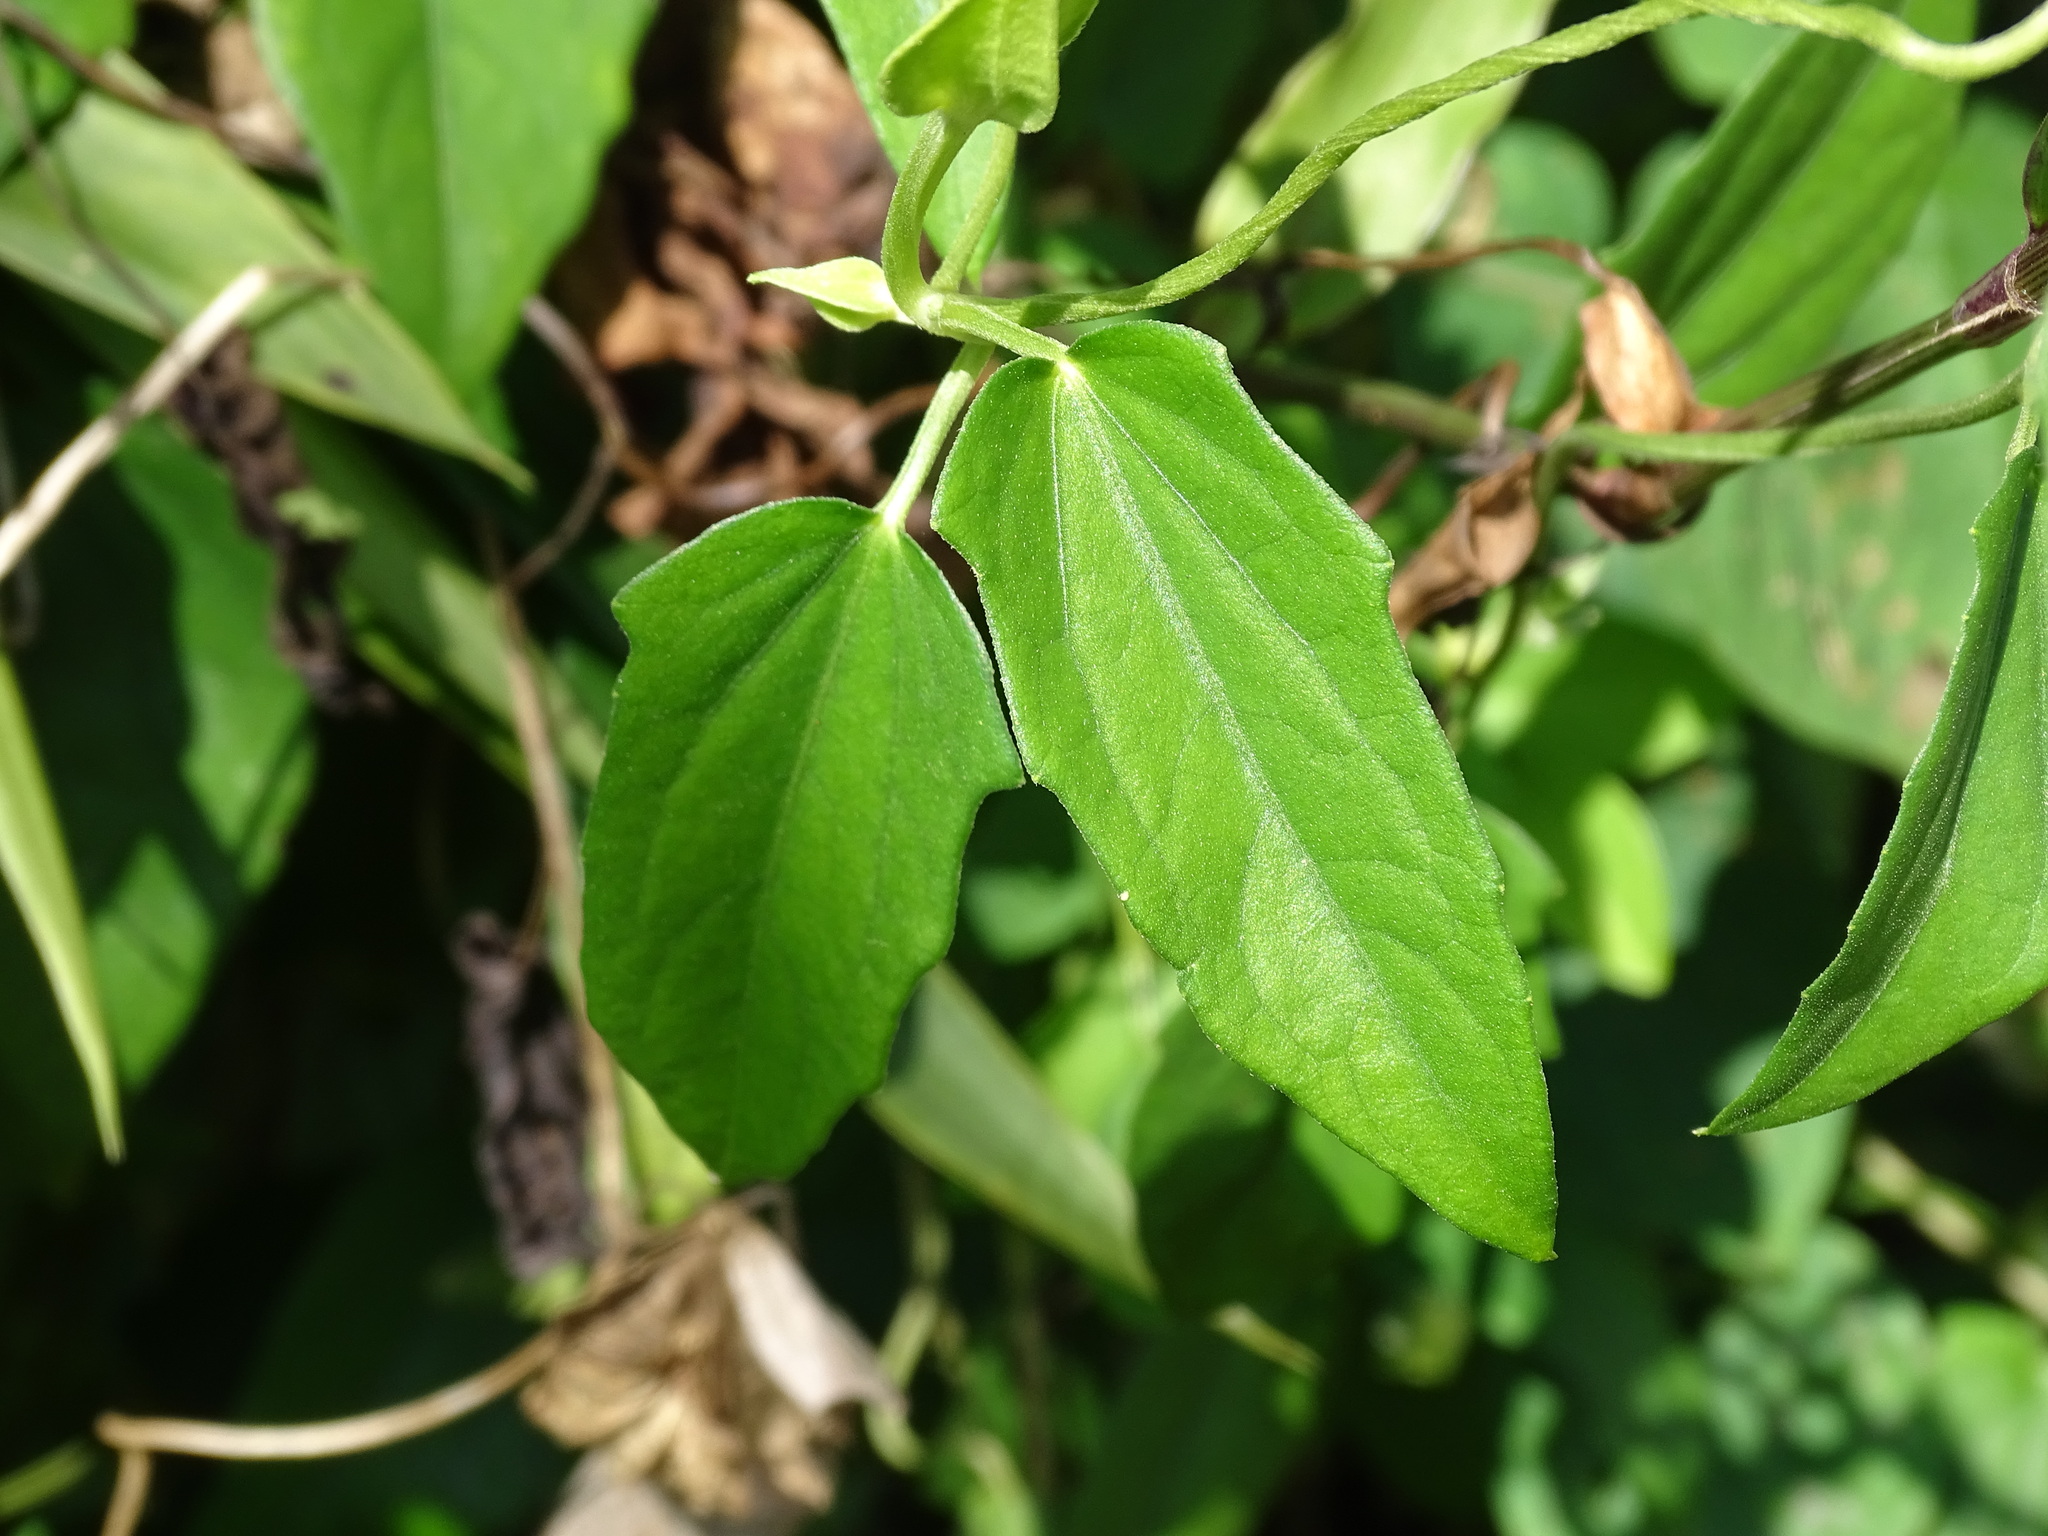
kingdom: Plantae
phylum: Tracheophyta
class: Magnoliopsida
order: Lamiales
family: Acanthaceae
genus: Thunbergia
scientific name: Thunbergia fragrans
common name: Whitelady
